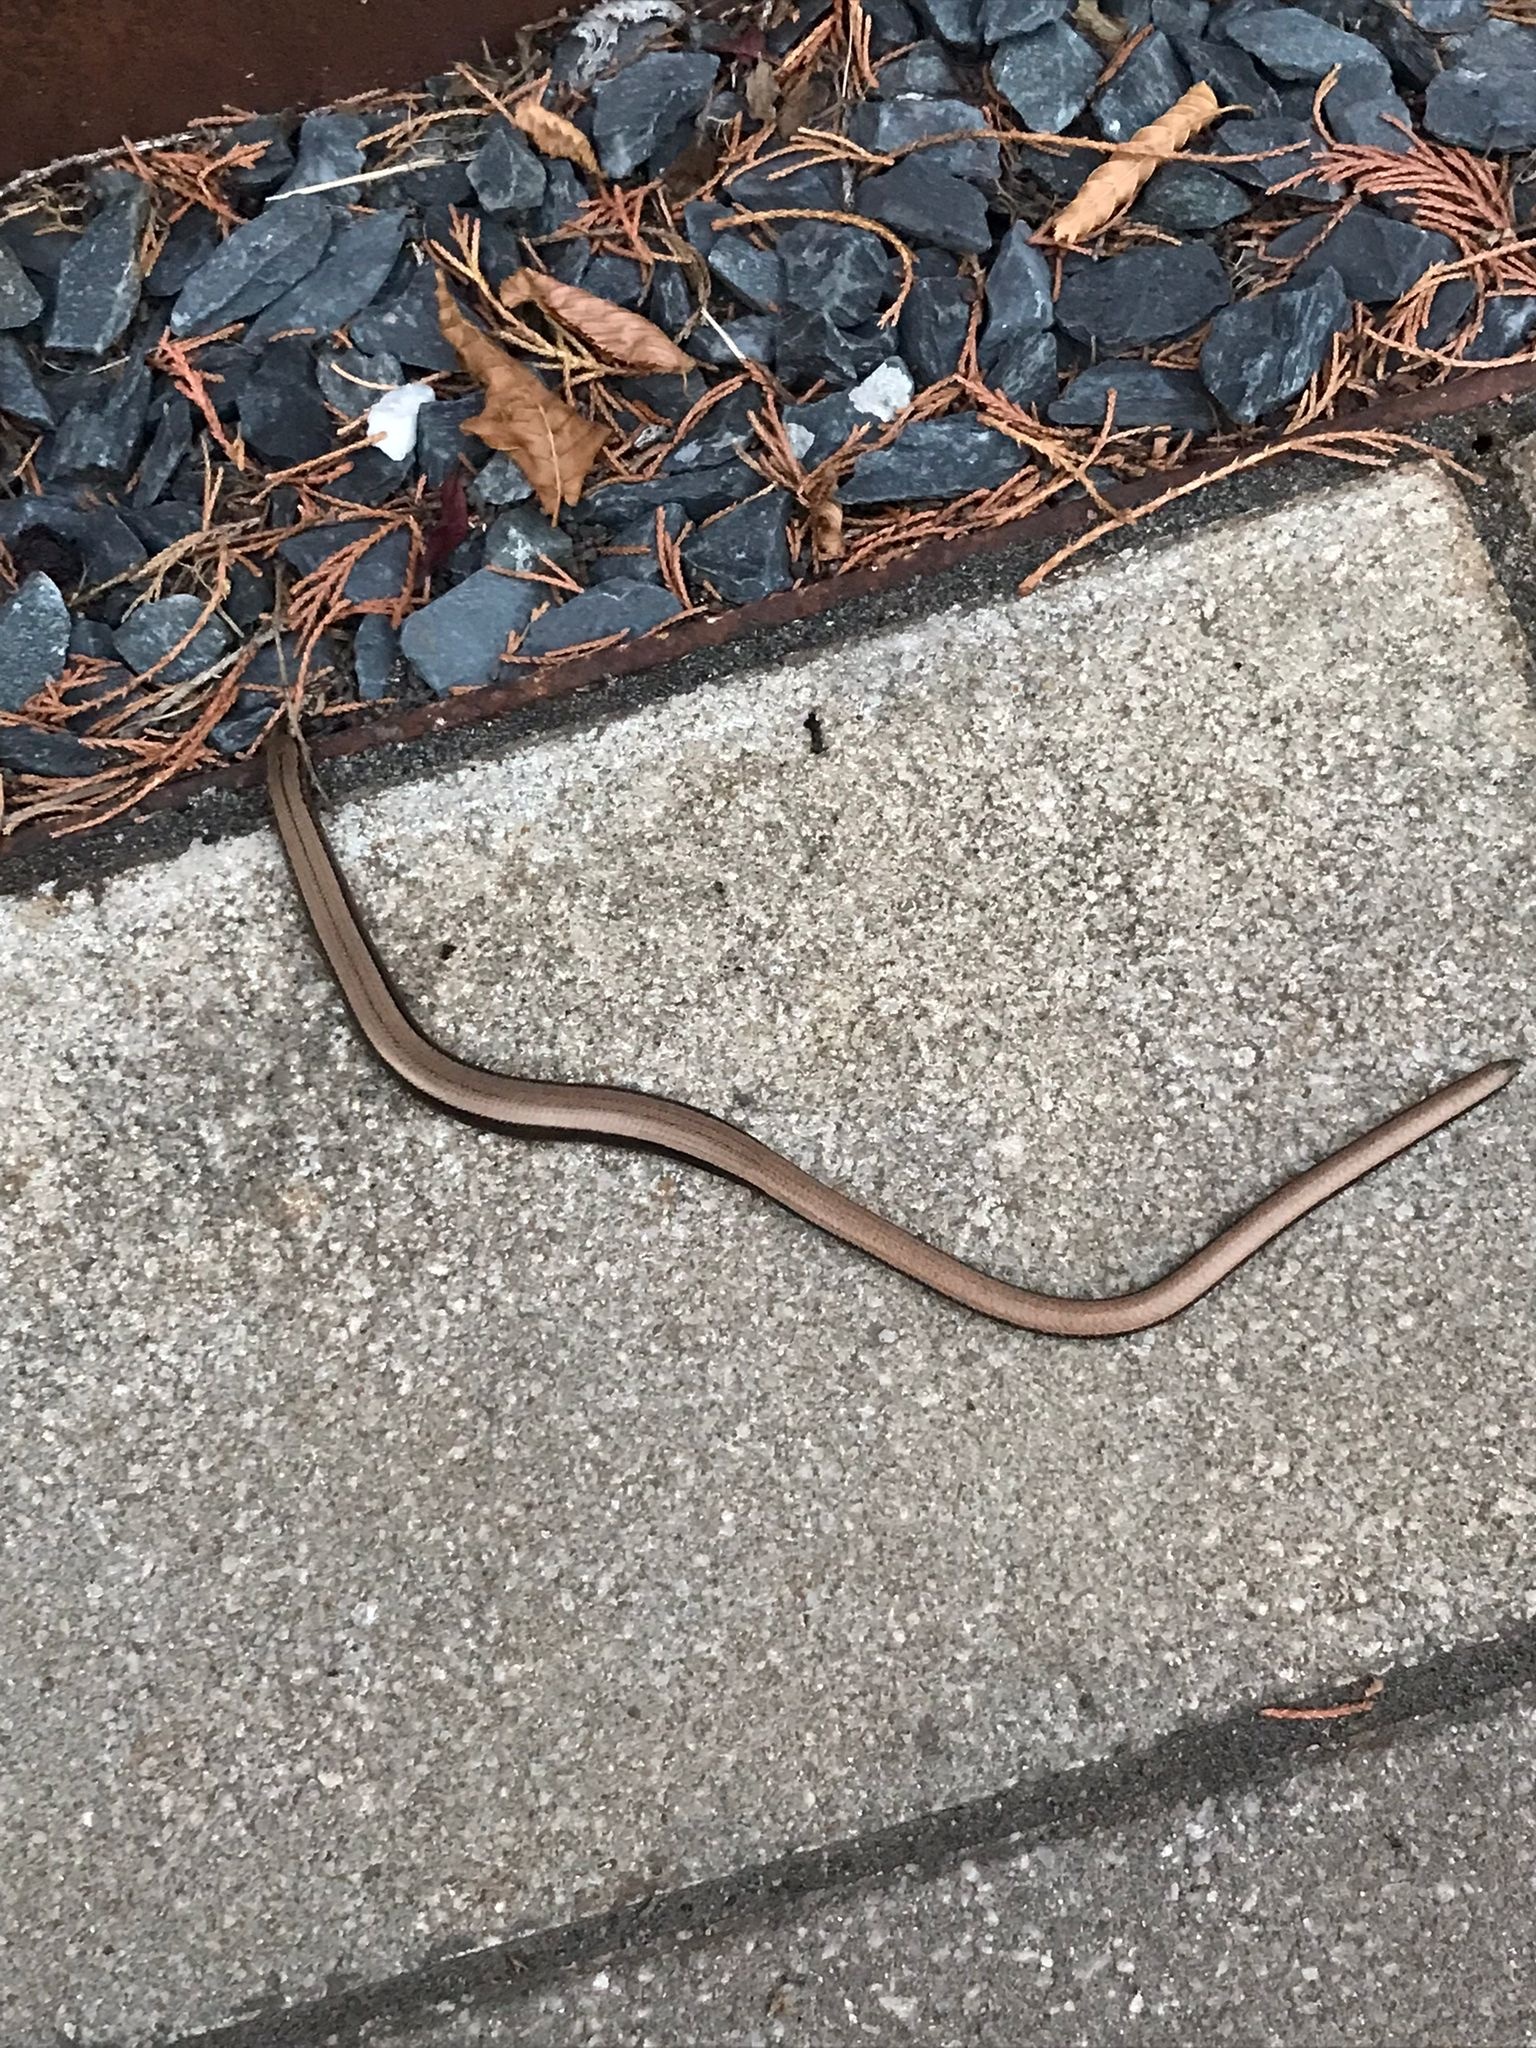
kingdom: Animalia
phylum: Chordata
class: Squamata
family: Anguidae
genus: Anguis
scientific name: Anguis fragilis
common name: Slow worm
